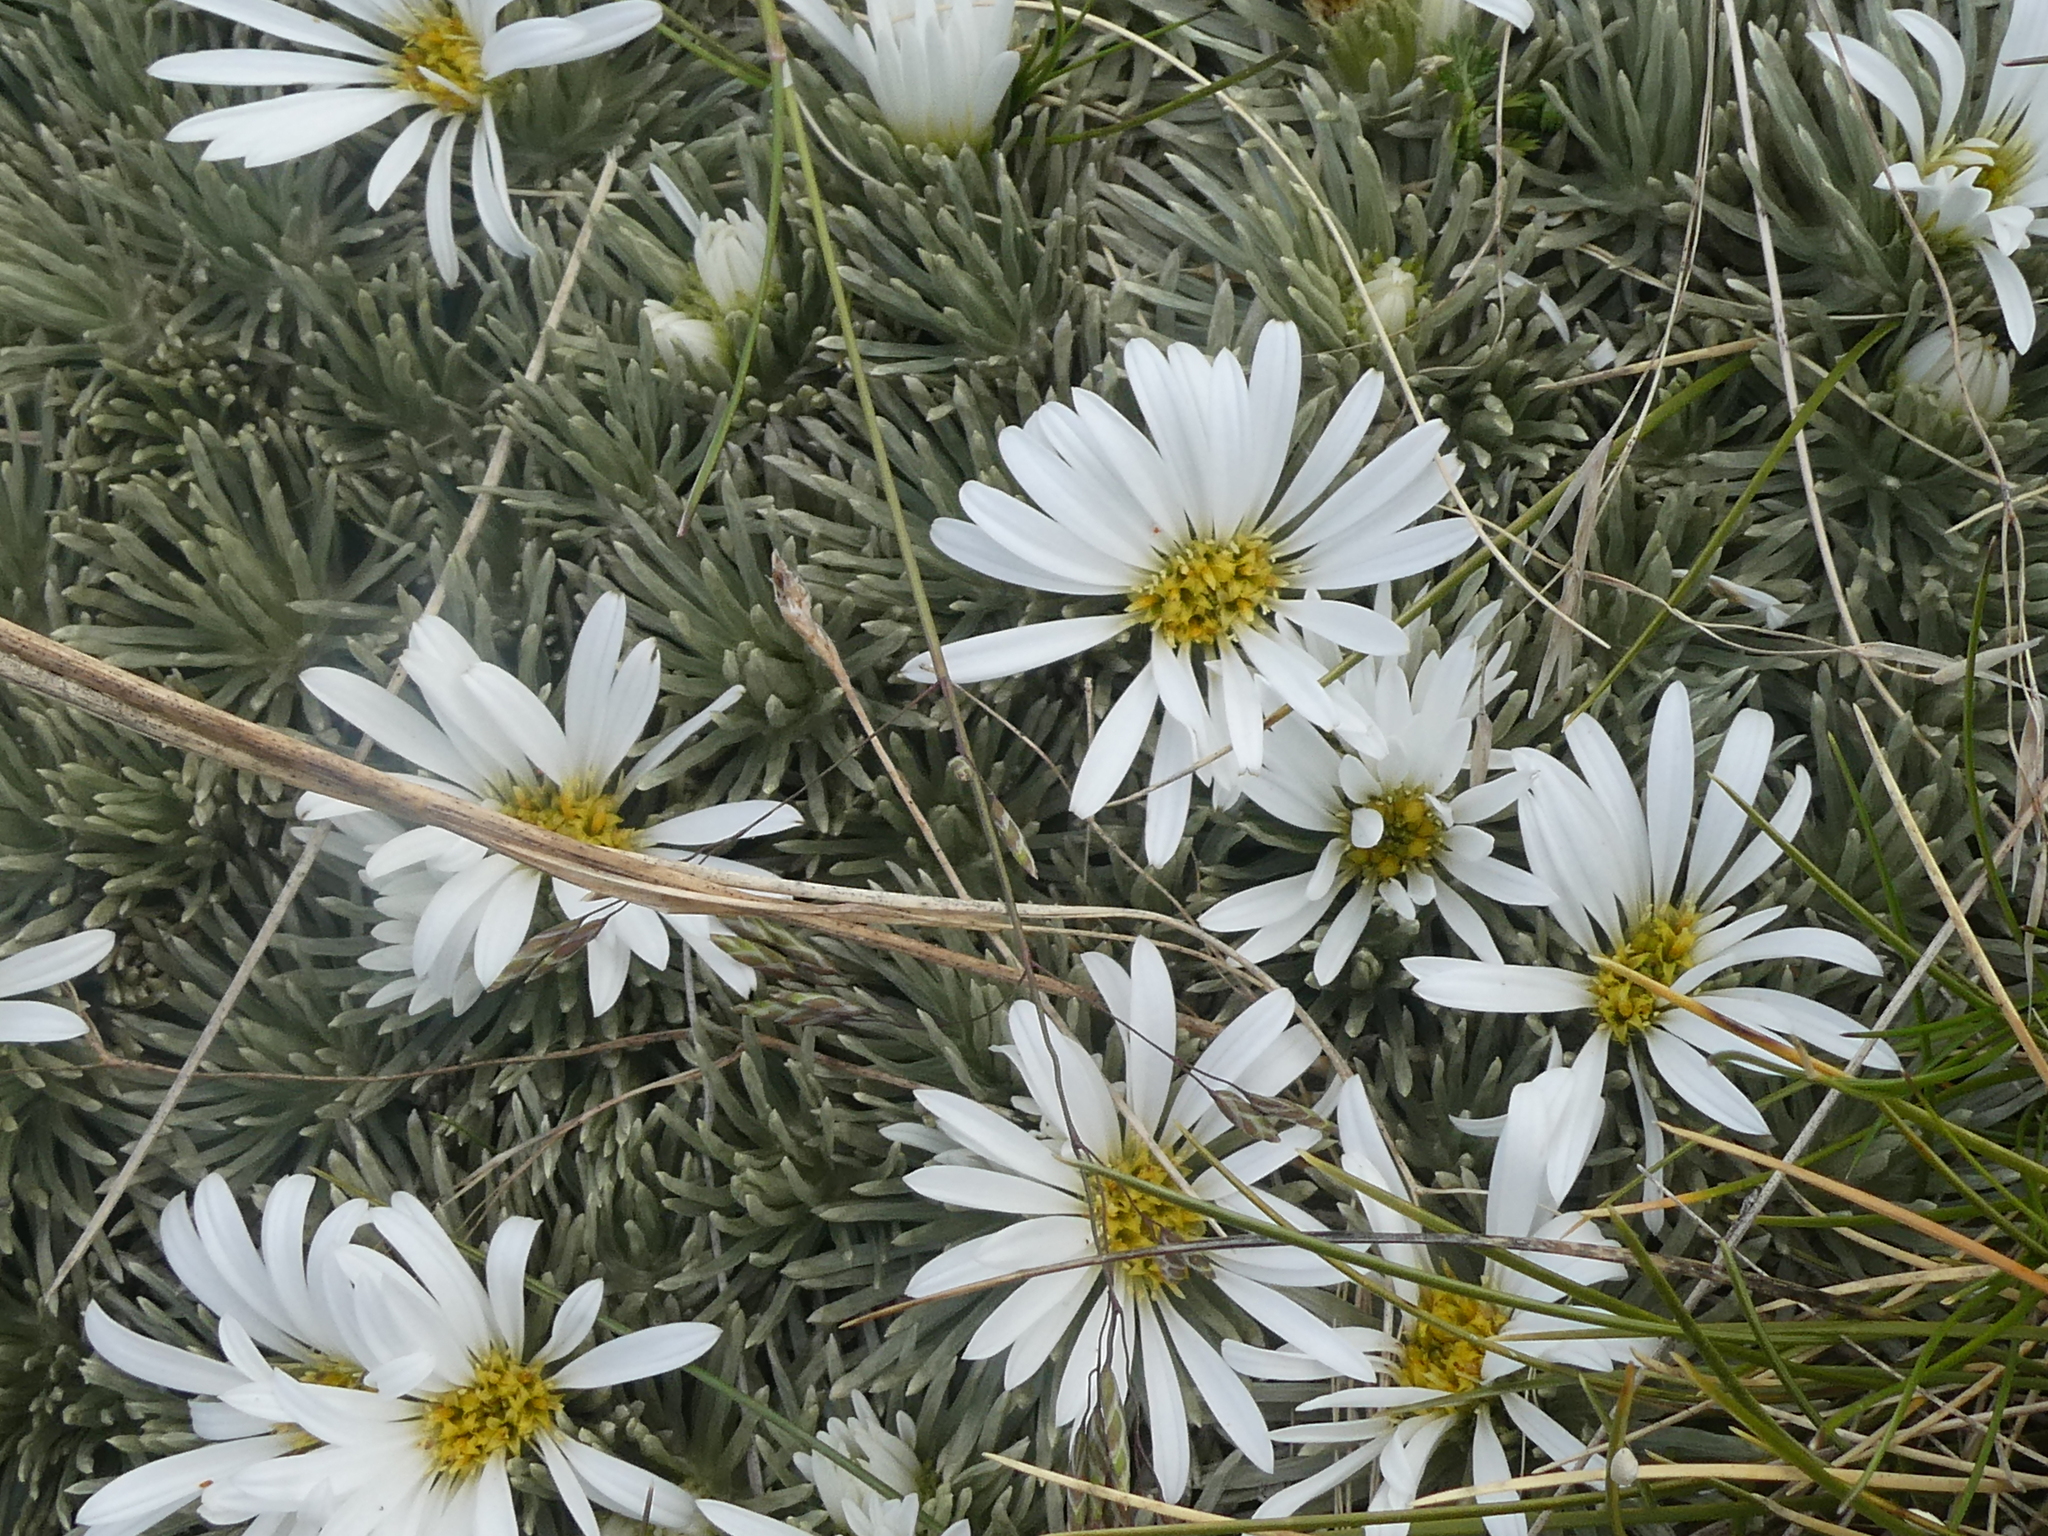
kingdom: Plantae
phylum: Tracheophyta
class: Magnoliopsida
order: Asterales
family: Asteraceae
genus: Celmisia
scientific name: Celmisia sessiliflora
